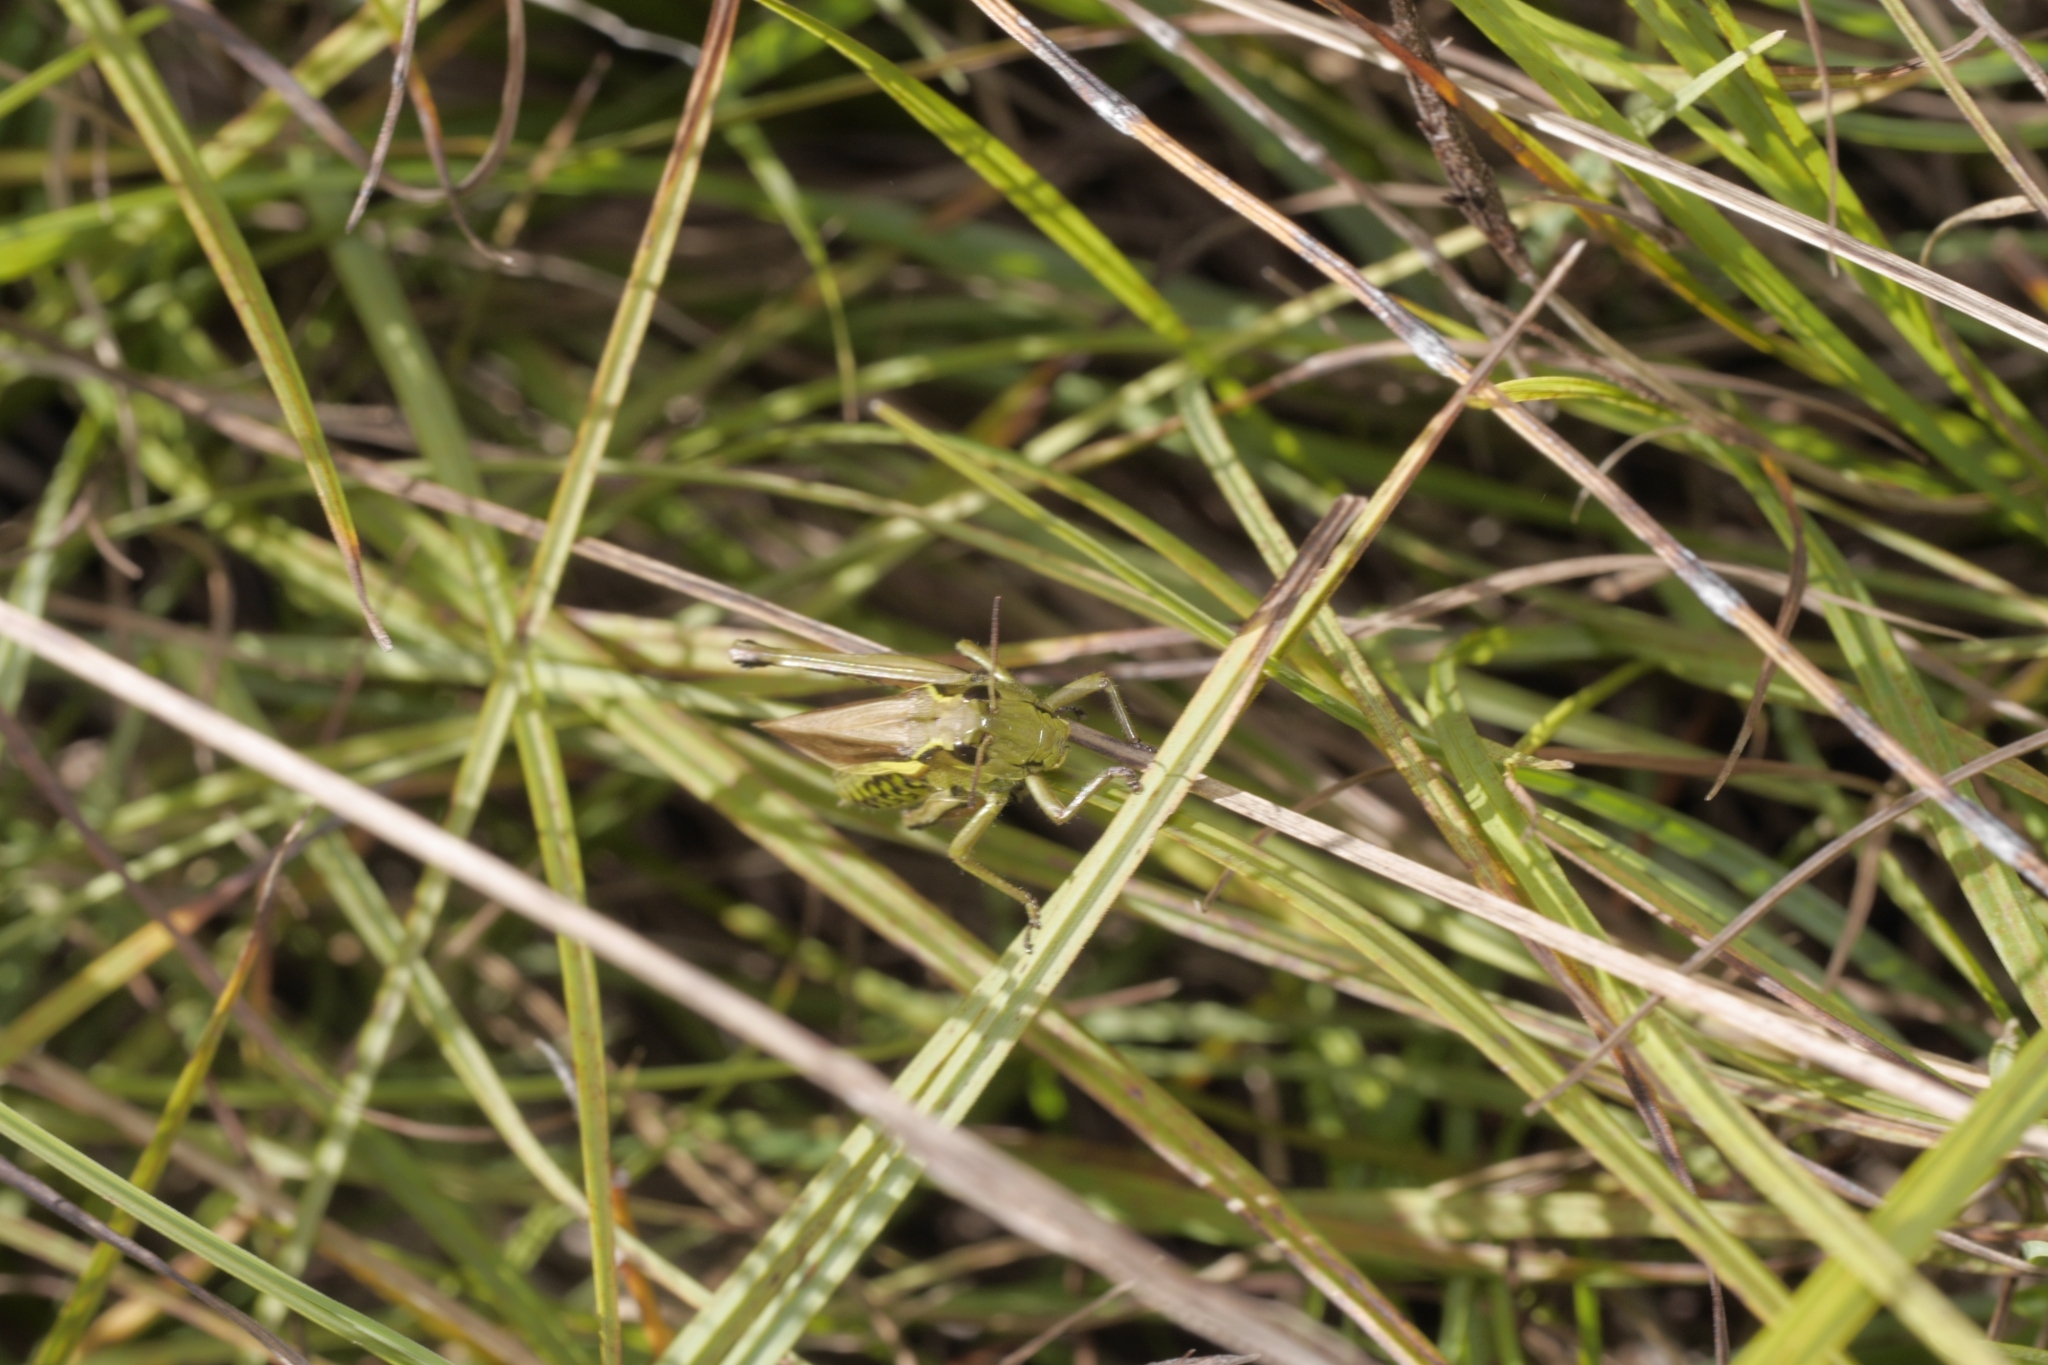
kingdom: Animalia
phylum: Arthropoda
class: Insecta
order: Orthoptera
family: Acrididae
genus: Stethophyma
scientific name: Stethophyma grossum
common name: Large marsh grasshopper
